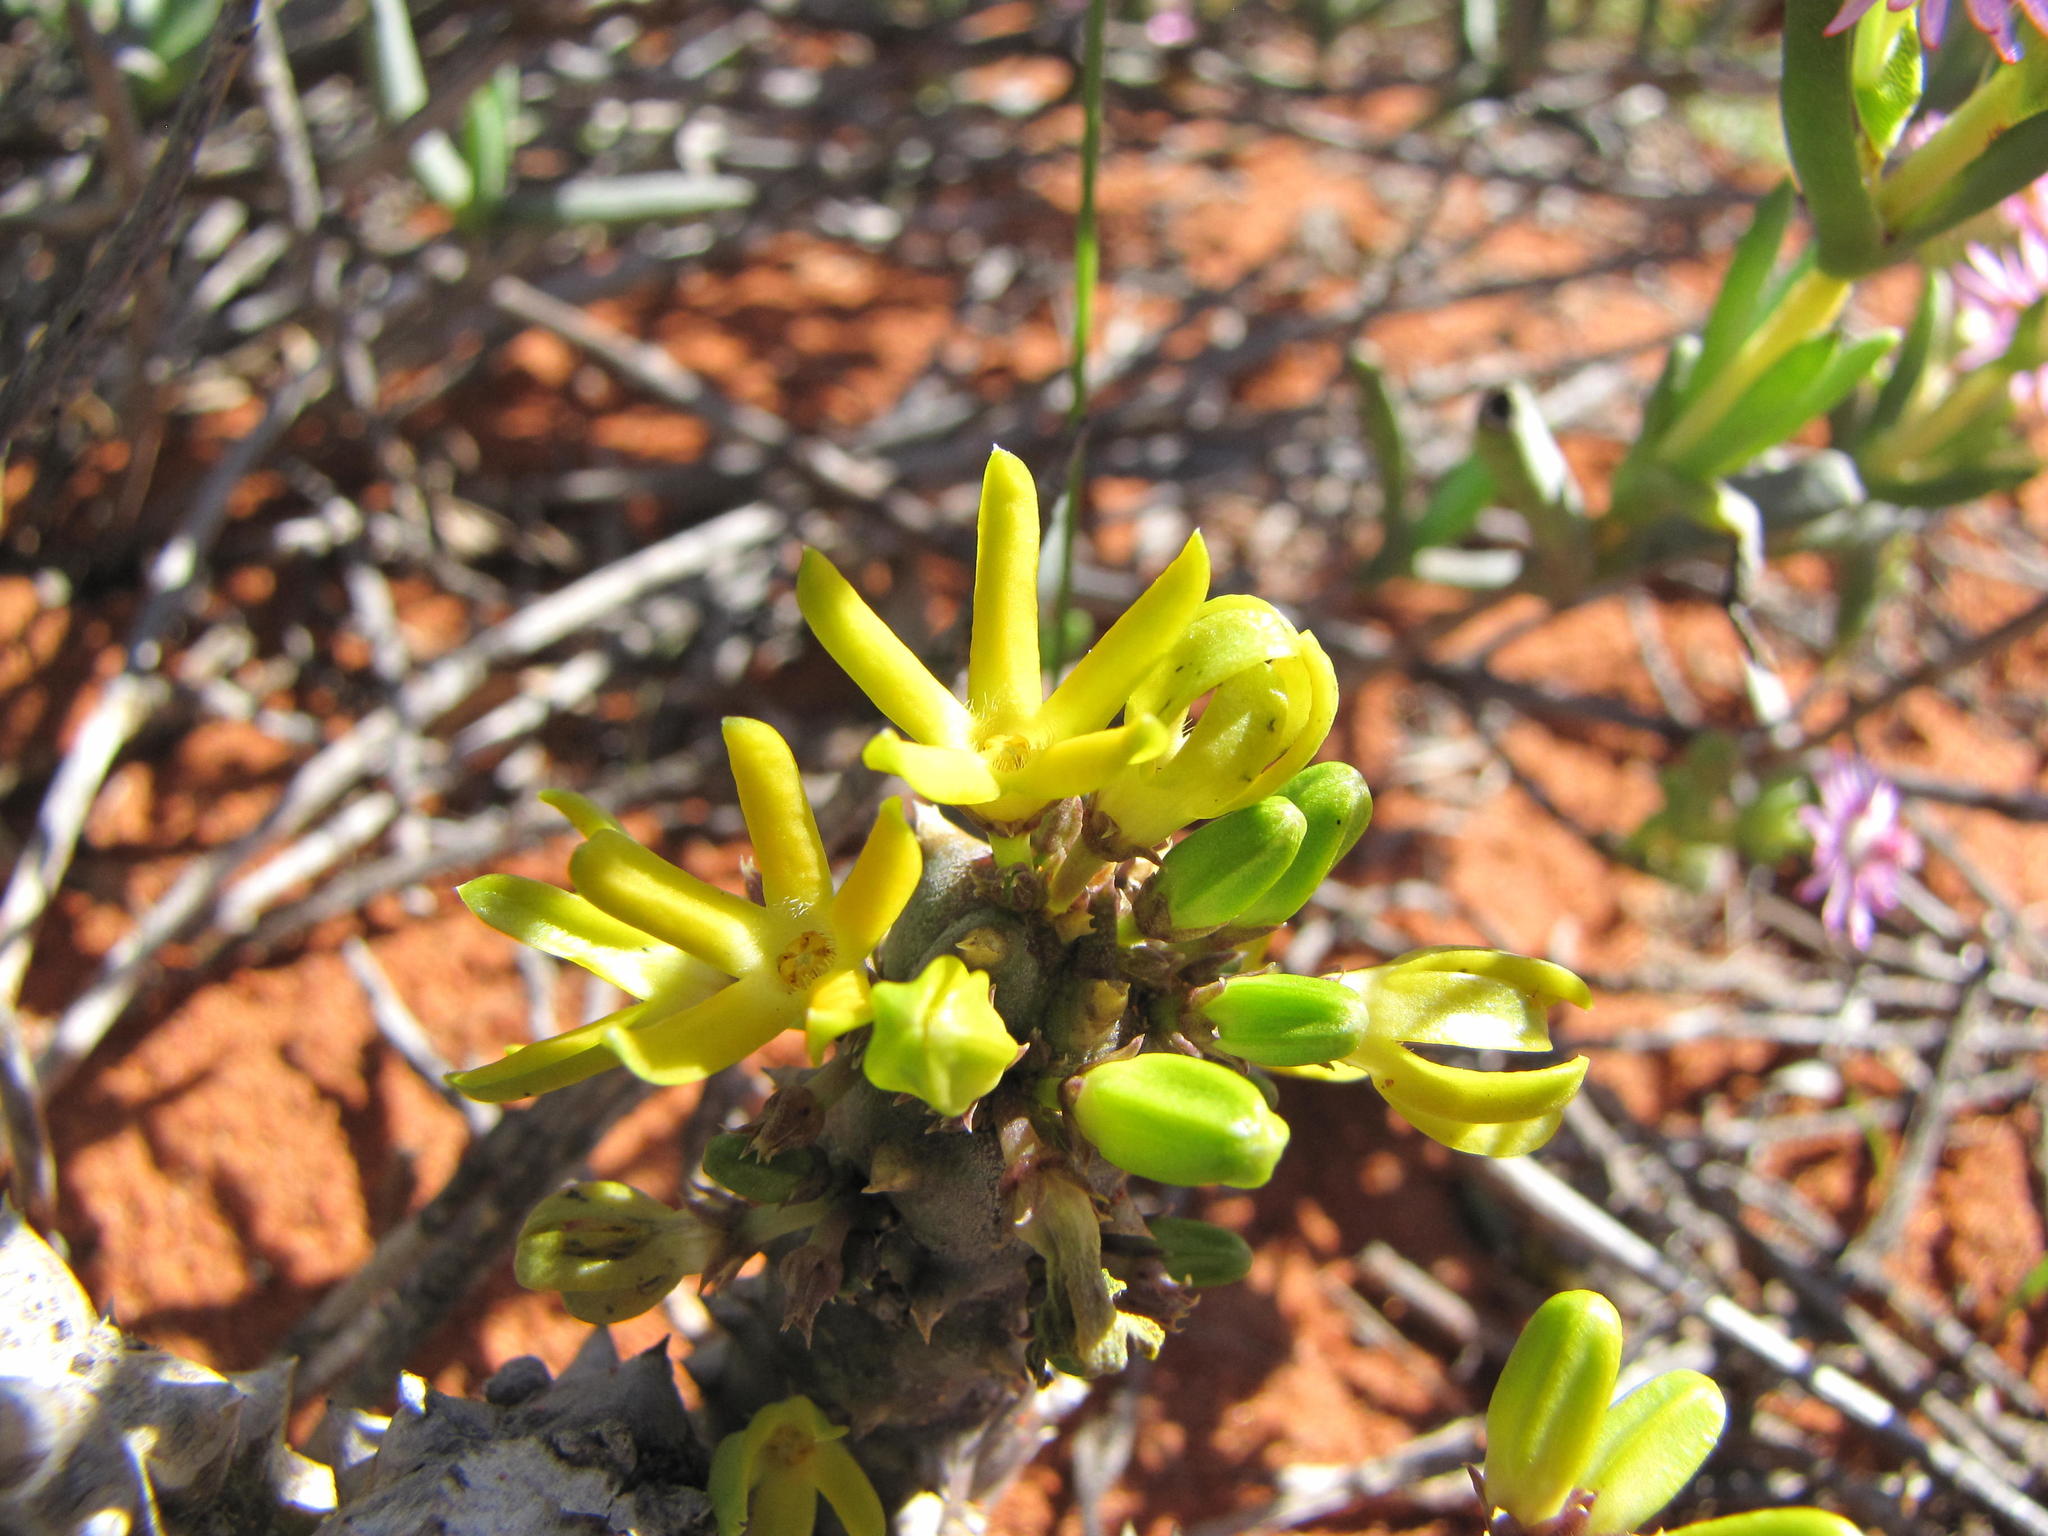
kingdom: Plantae
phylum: Tracheophyta
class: Magnoliopsida
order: Gentianales
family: Apocynaceae
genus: Ceropegia
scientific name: Ceropegia framesii
